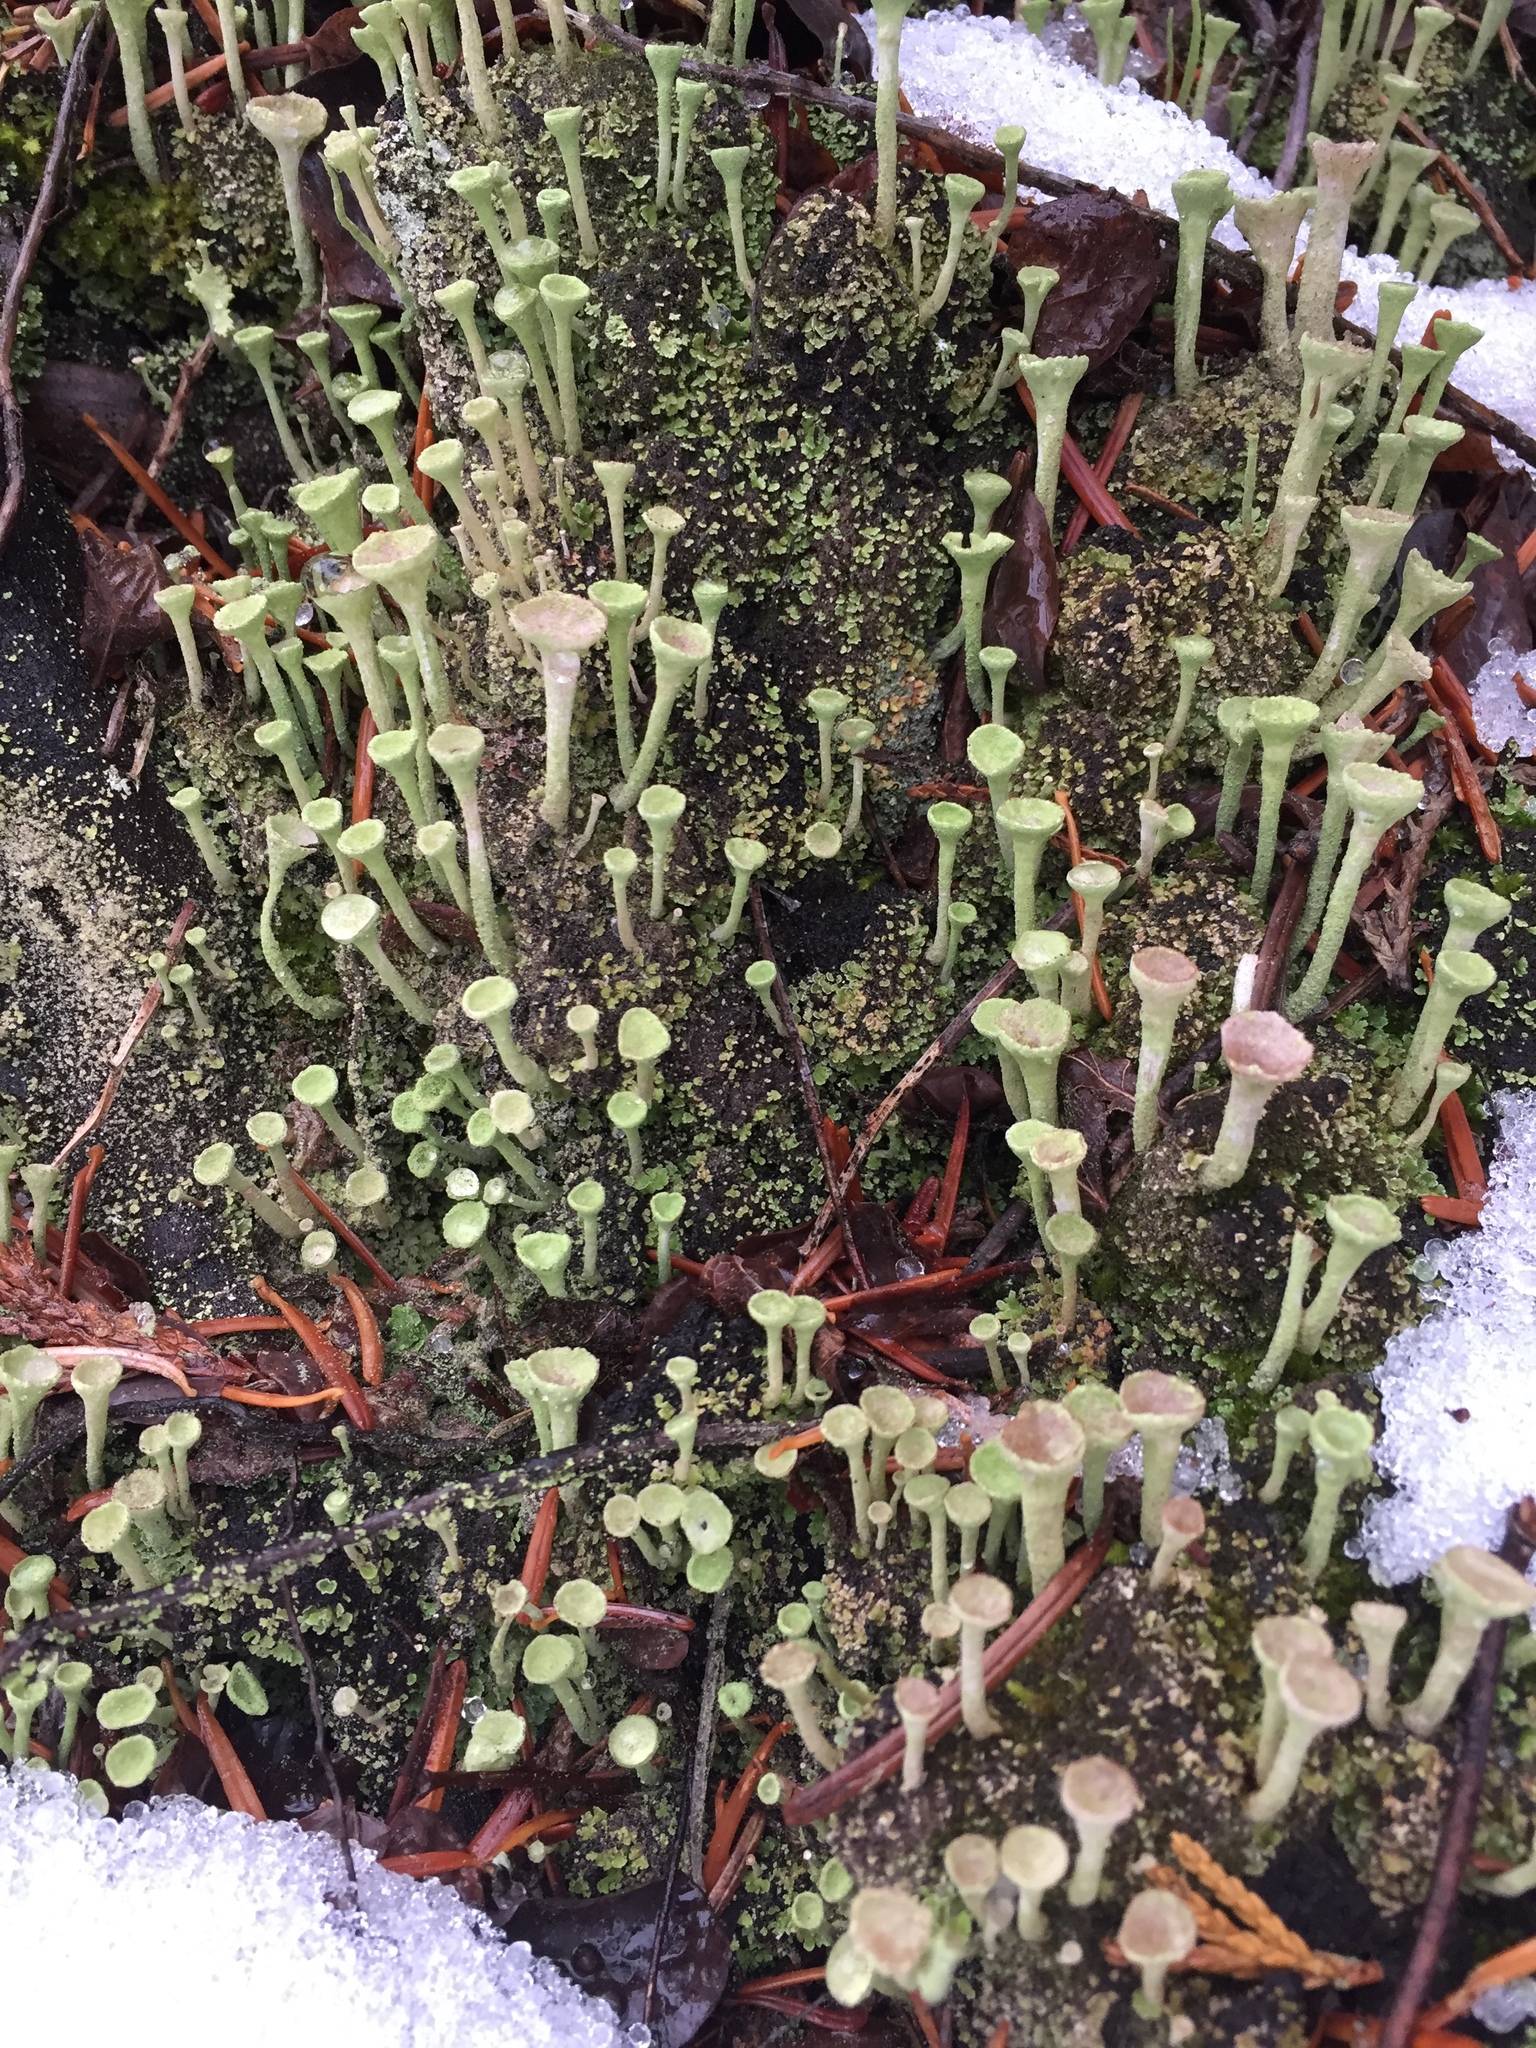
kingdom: Fungi
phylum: Ascomycota
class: Lecanoromycetes
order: Lecanorales
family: Cladoniaceae
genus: Cladonia
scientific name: Cladonia fimbriata
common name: Powdered trumpet lichen
